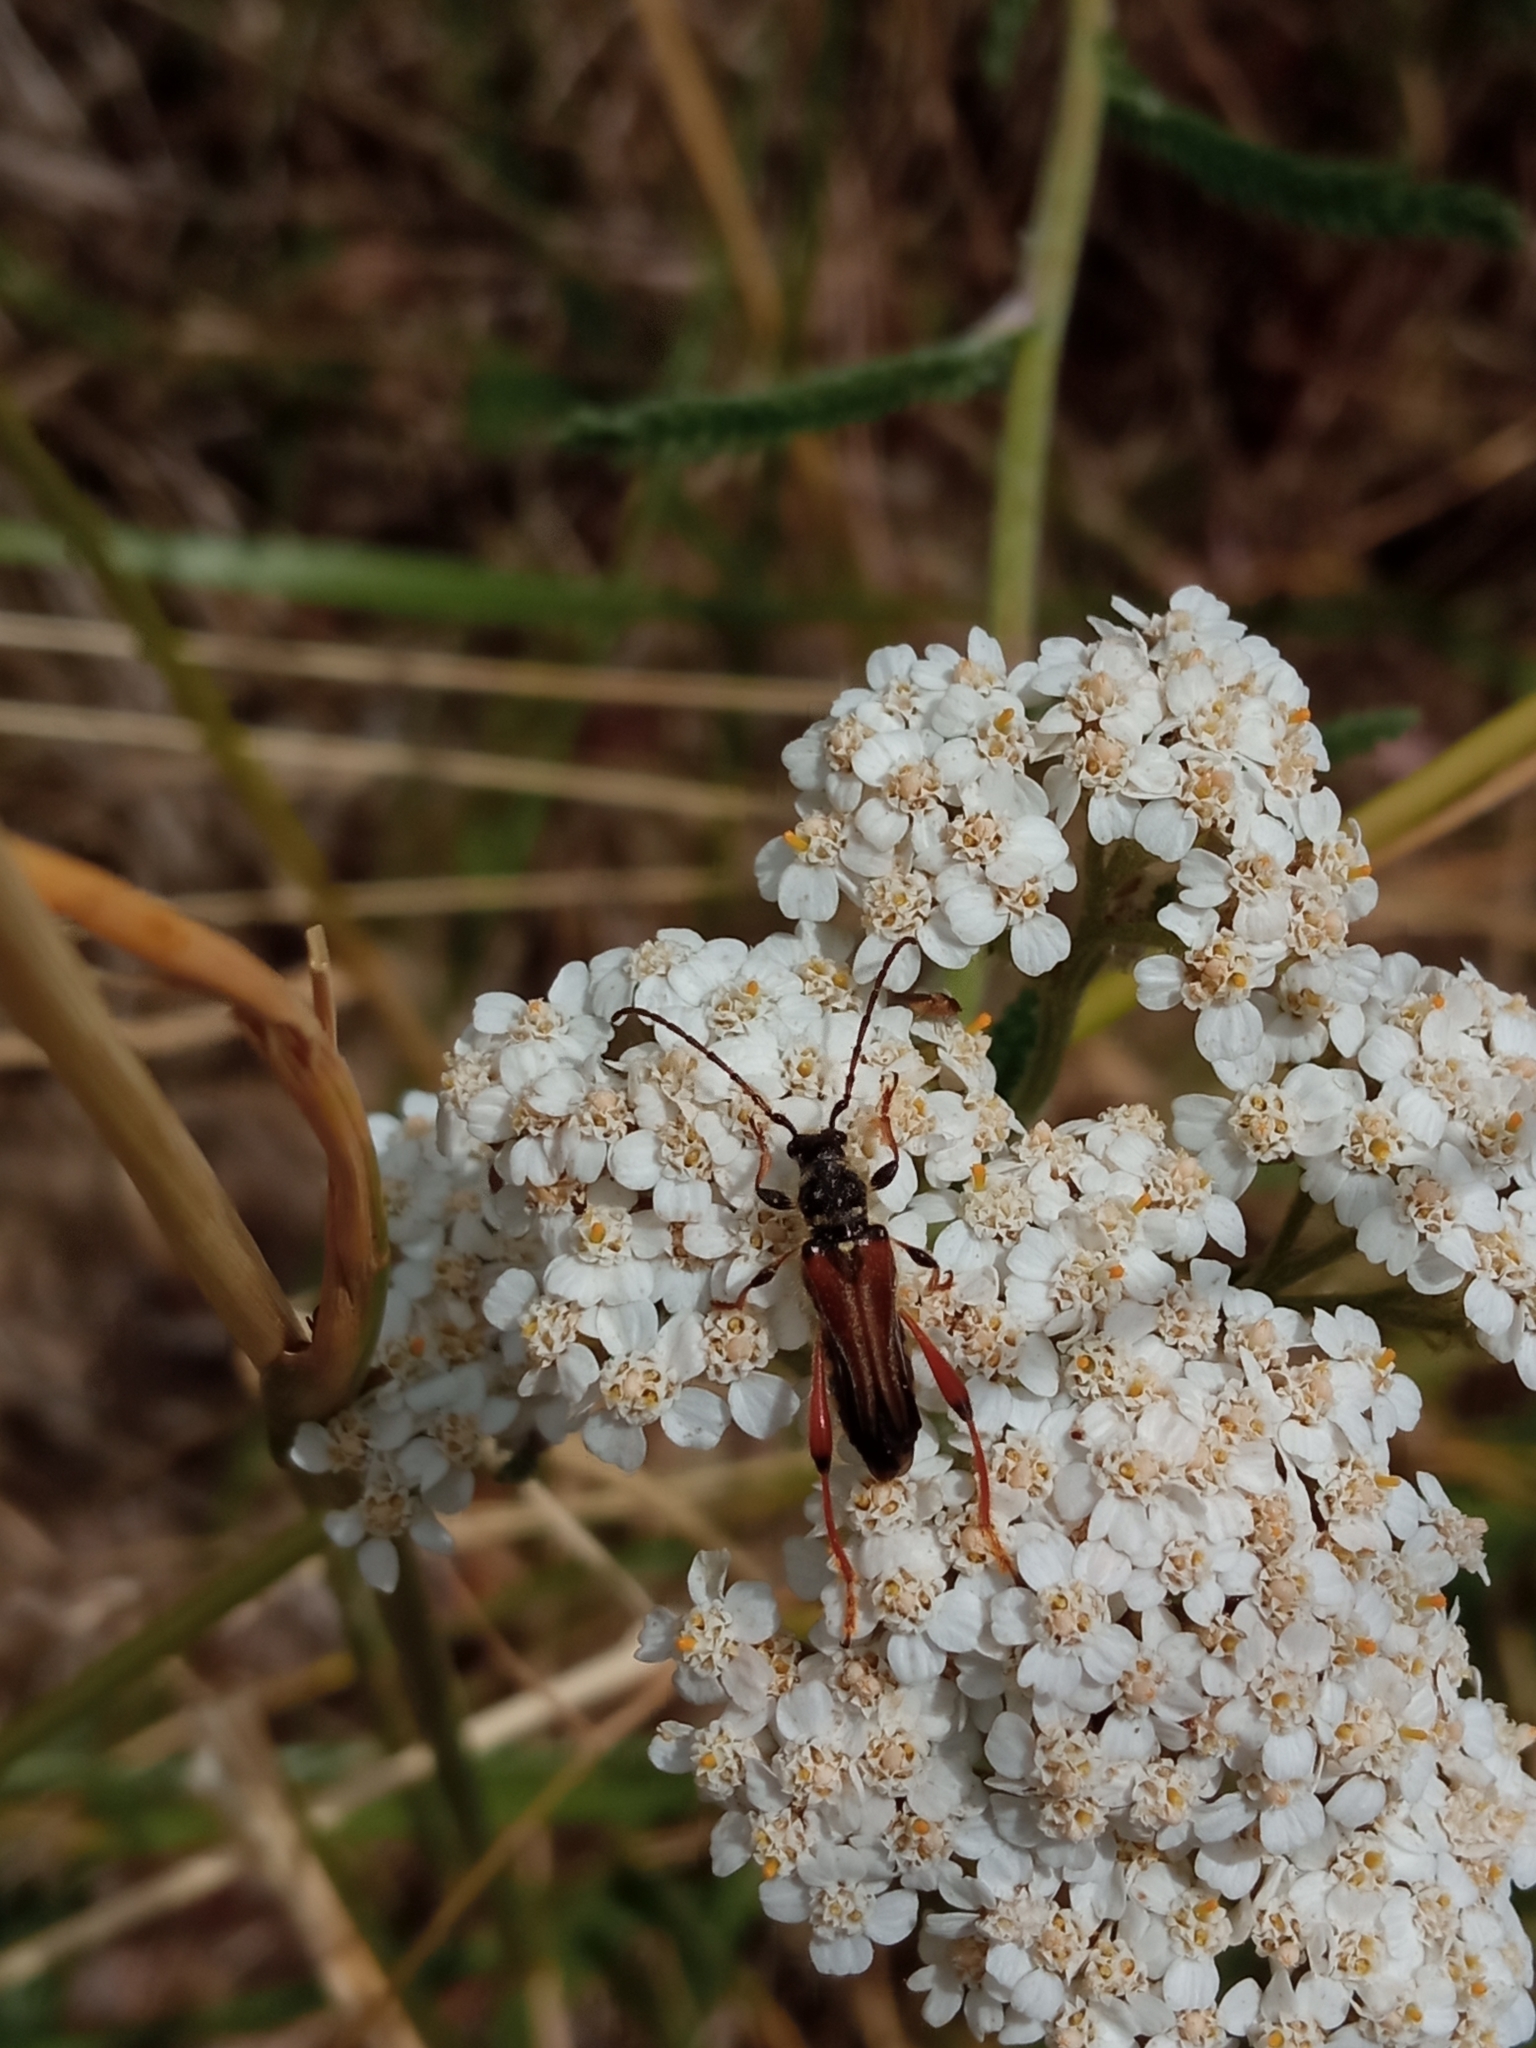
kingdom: Animalia
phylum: Arthropoda
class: Insecta
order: Coleoptera
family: Cerambycidae
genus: Stenopterus
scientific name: Stenopterus rufus
